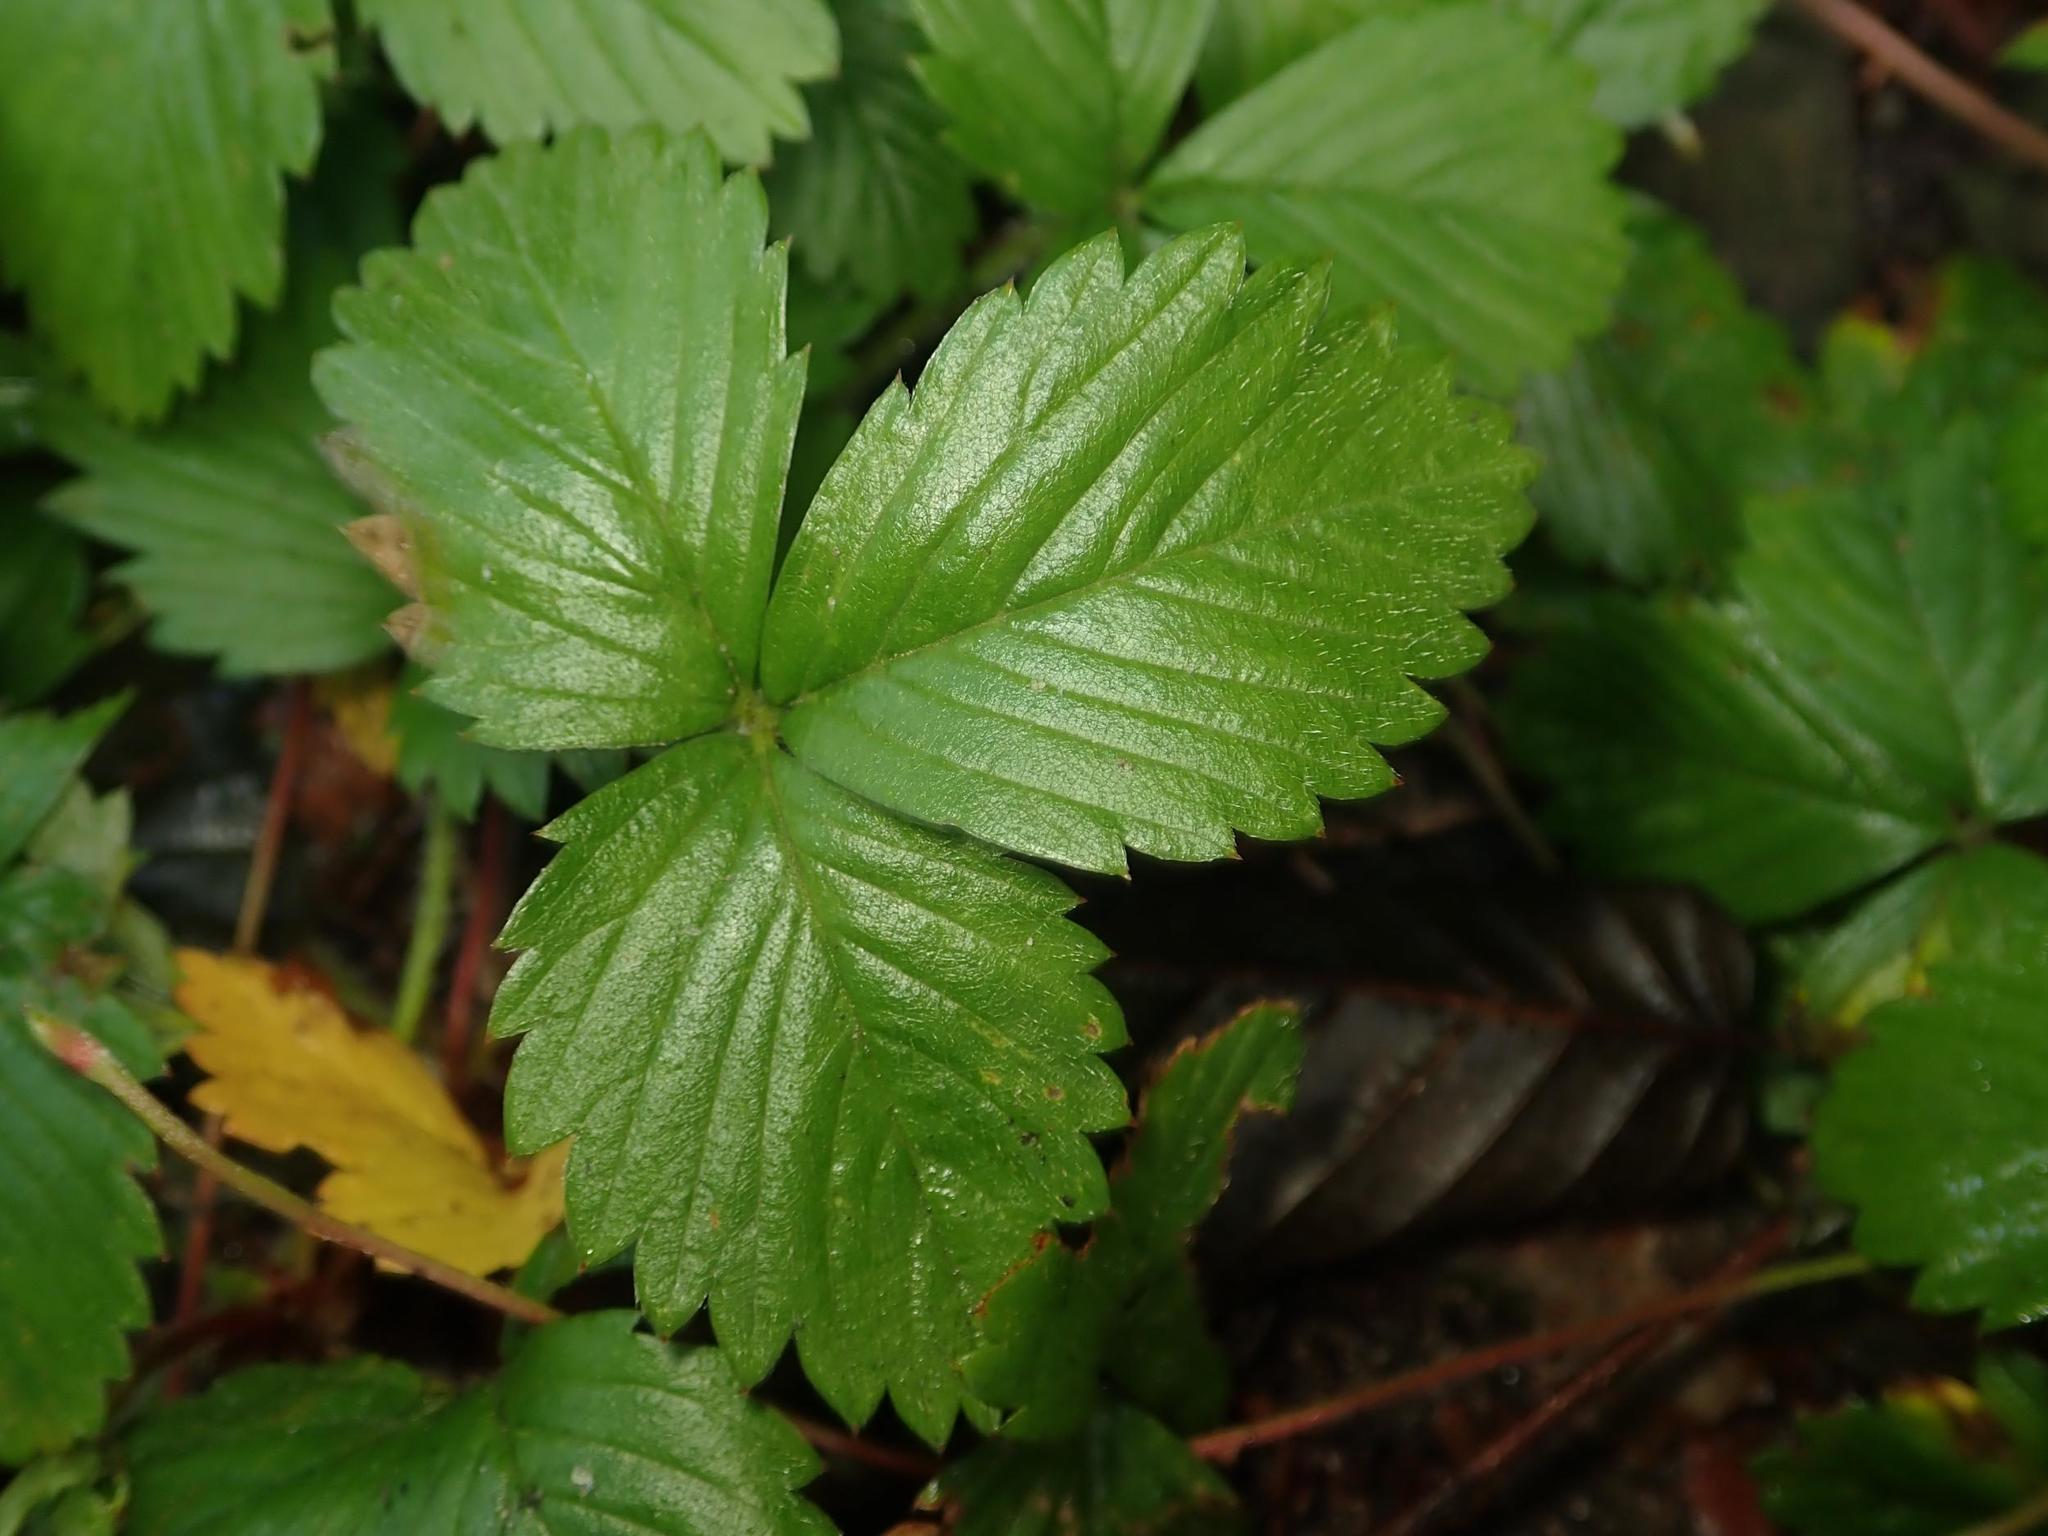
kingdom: Plantae
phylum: Tracheophyta
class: Magnoliopsida
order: Rosales
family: Rosaceae
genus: Fragaria
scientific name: Fragaria vesca
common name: Wild strawberry
